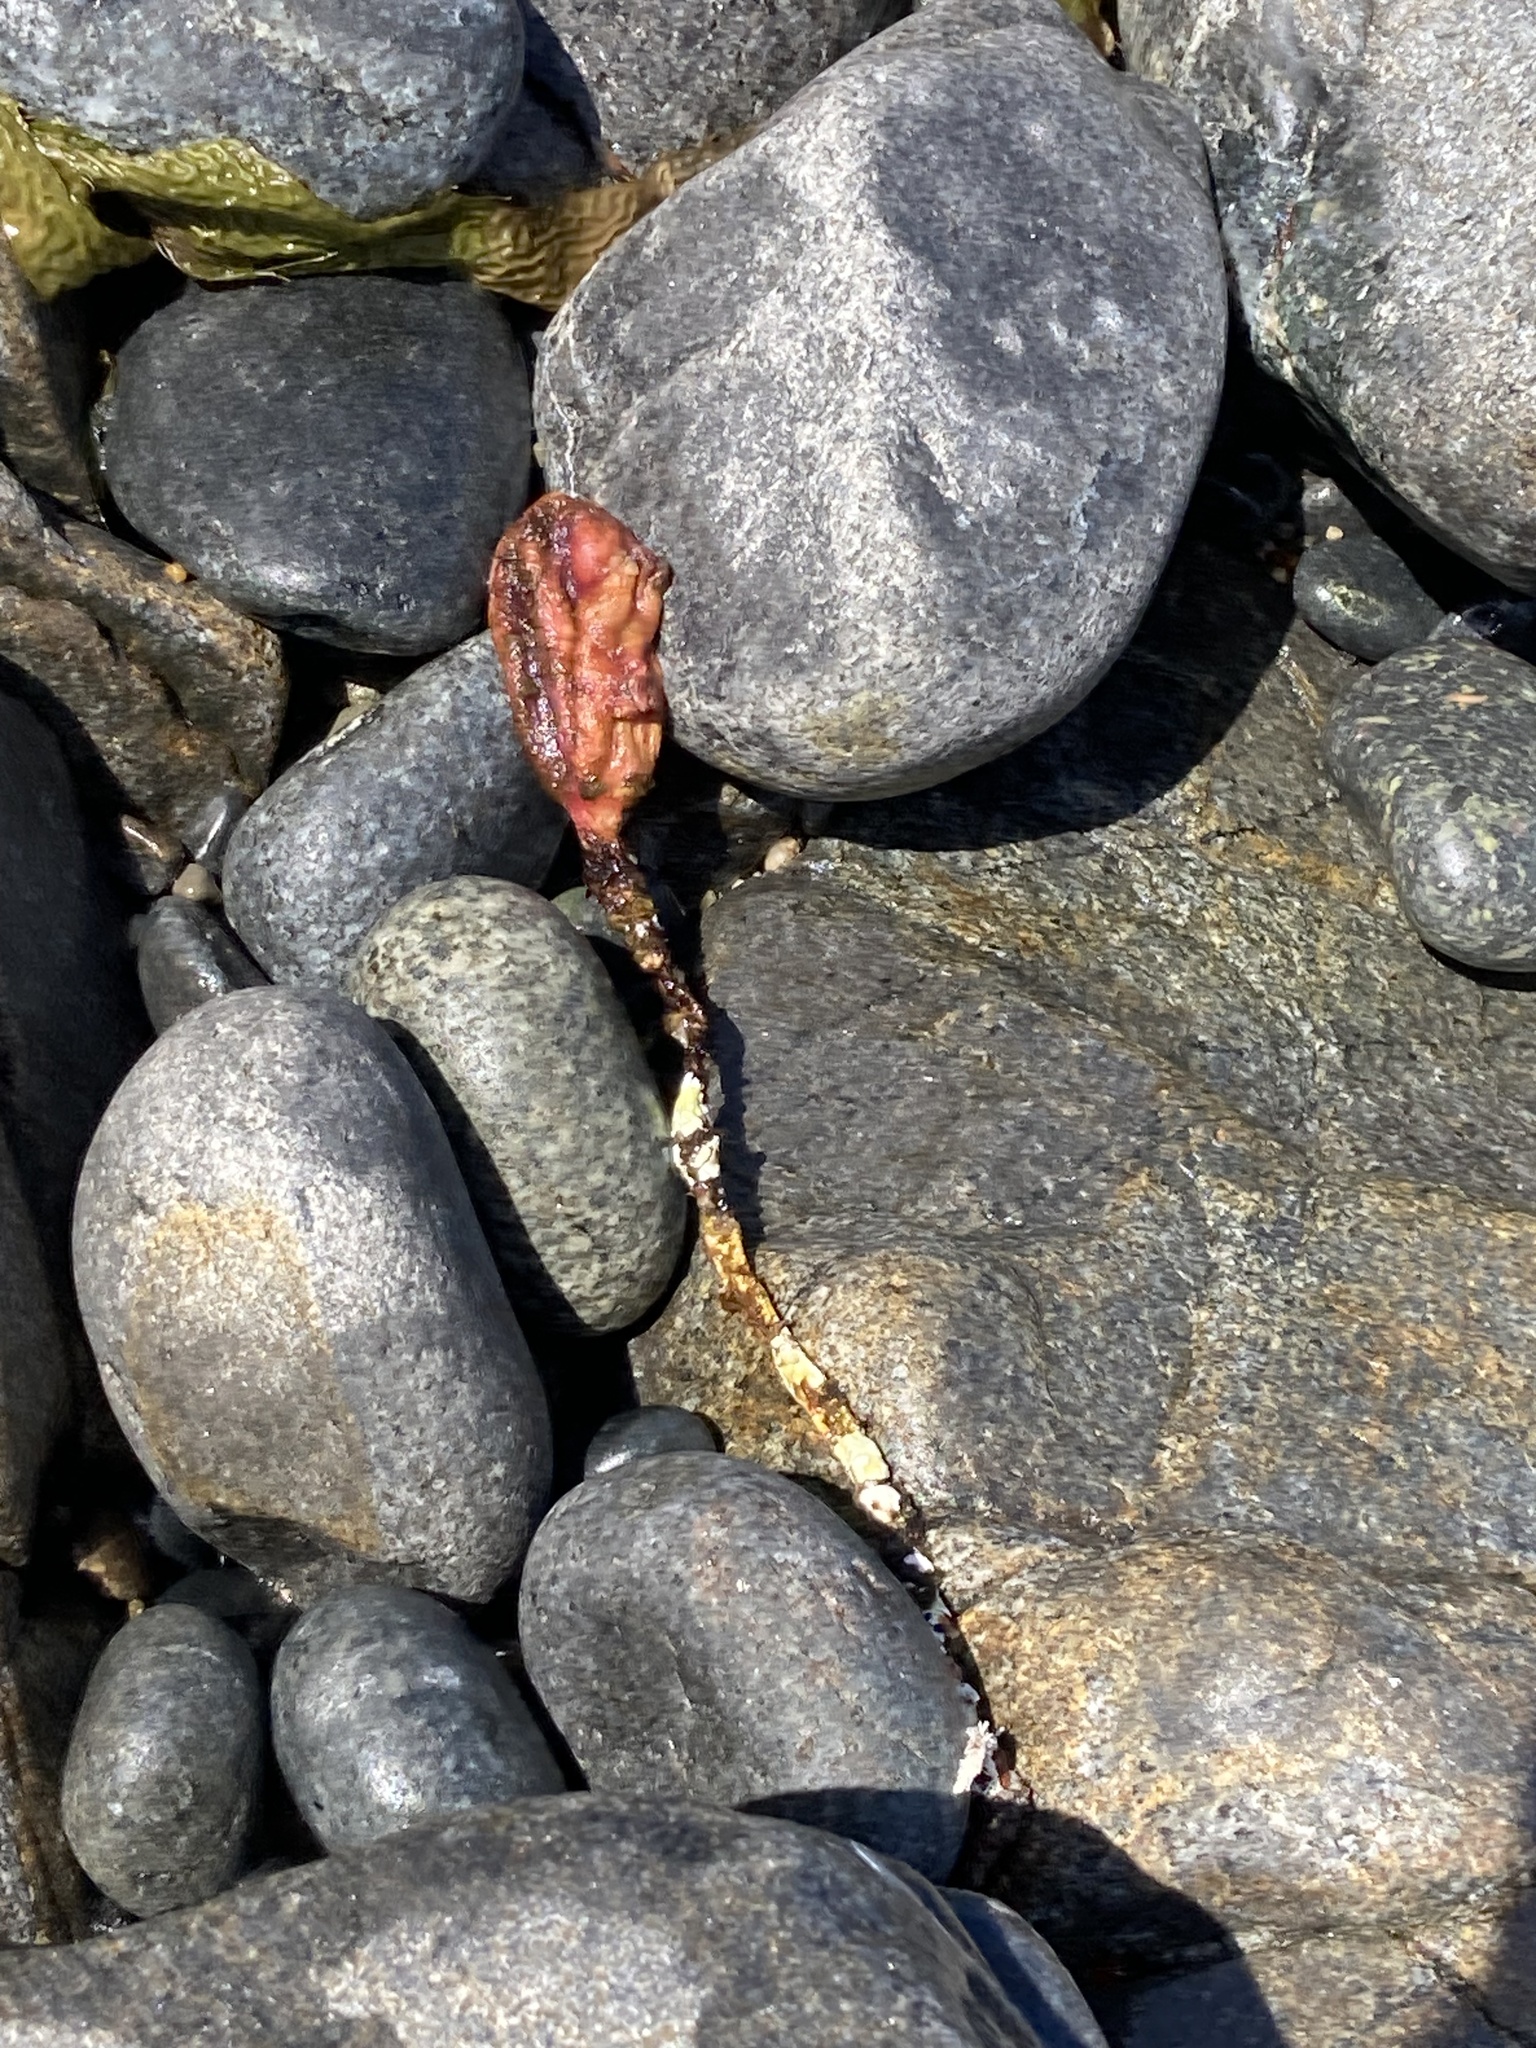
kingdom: Animalia
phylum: Chordata
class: Ascidiacea
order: Stolidobranchia
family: Pyuridae
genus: Pyura
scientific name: Pyura pachydermatina
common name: Sea tulip
